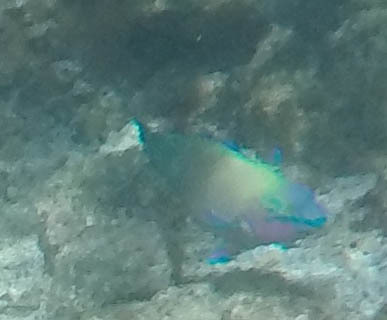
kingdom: Animalia
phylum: Chordata
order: Perciformes
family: Scaridae
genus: Scarus
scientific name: Scarus psittacus
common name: Palenose parrotfish
